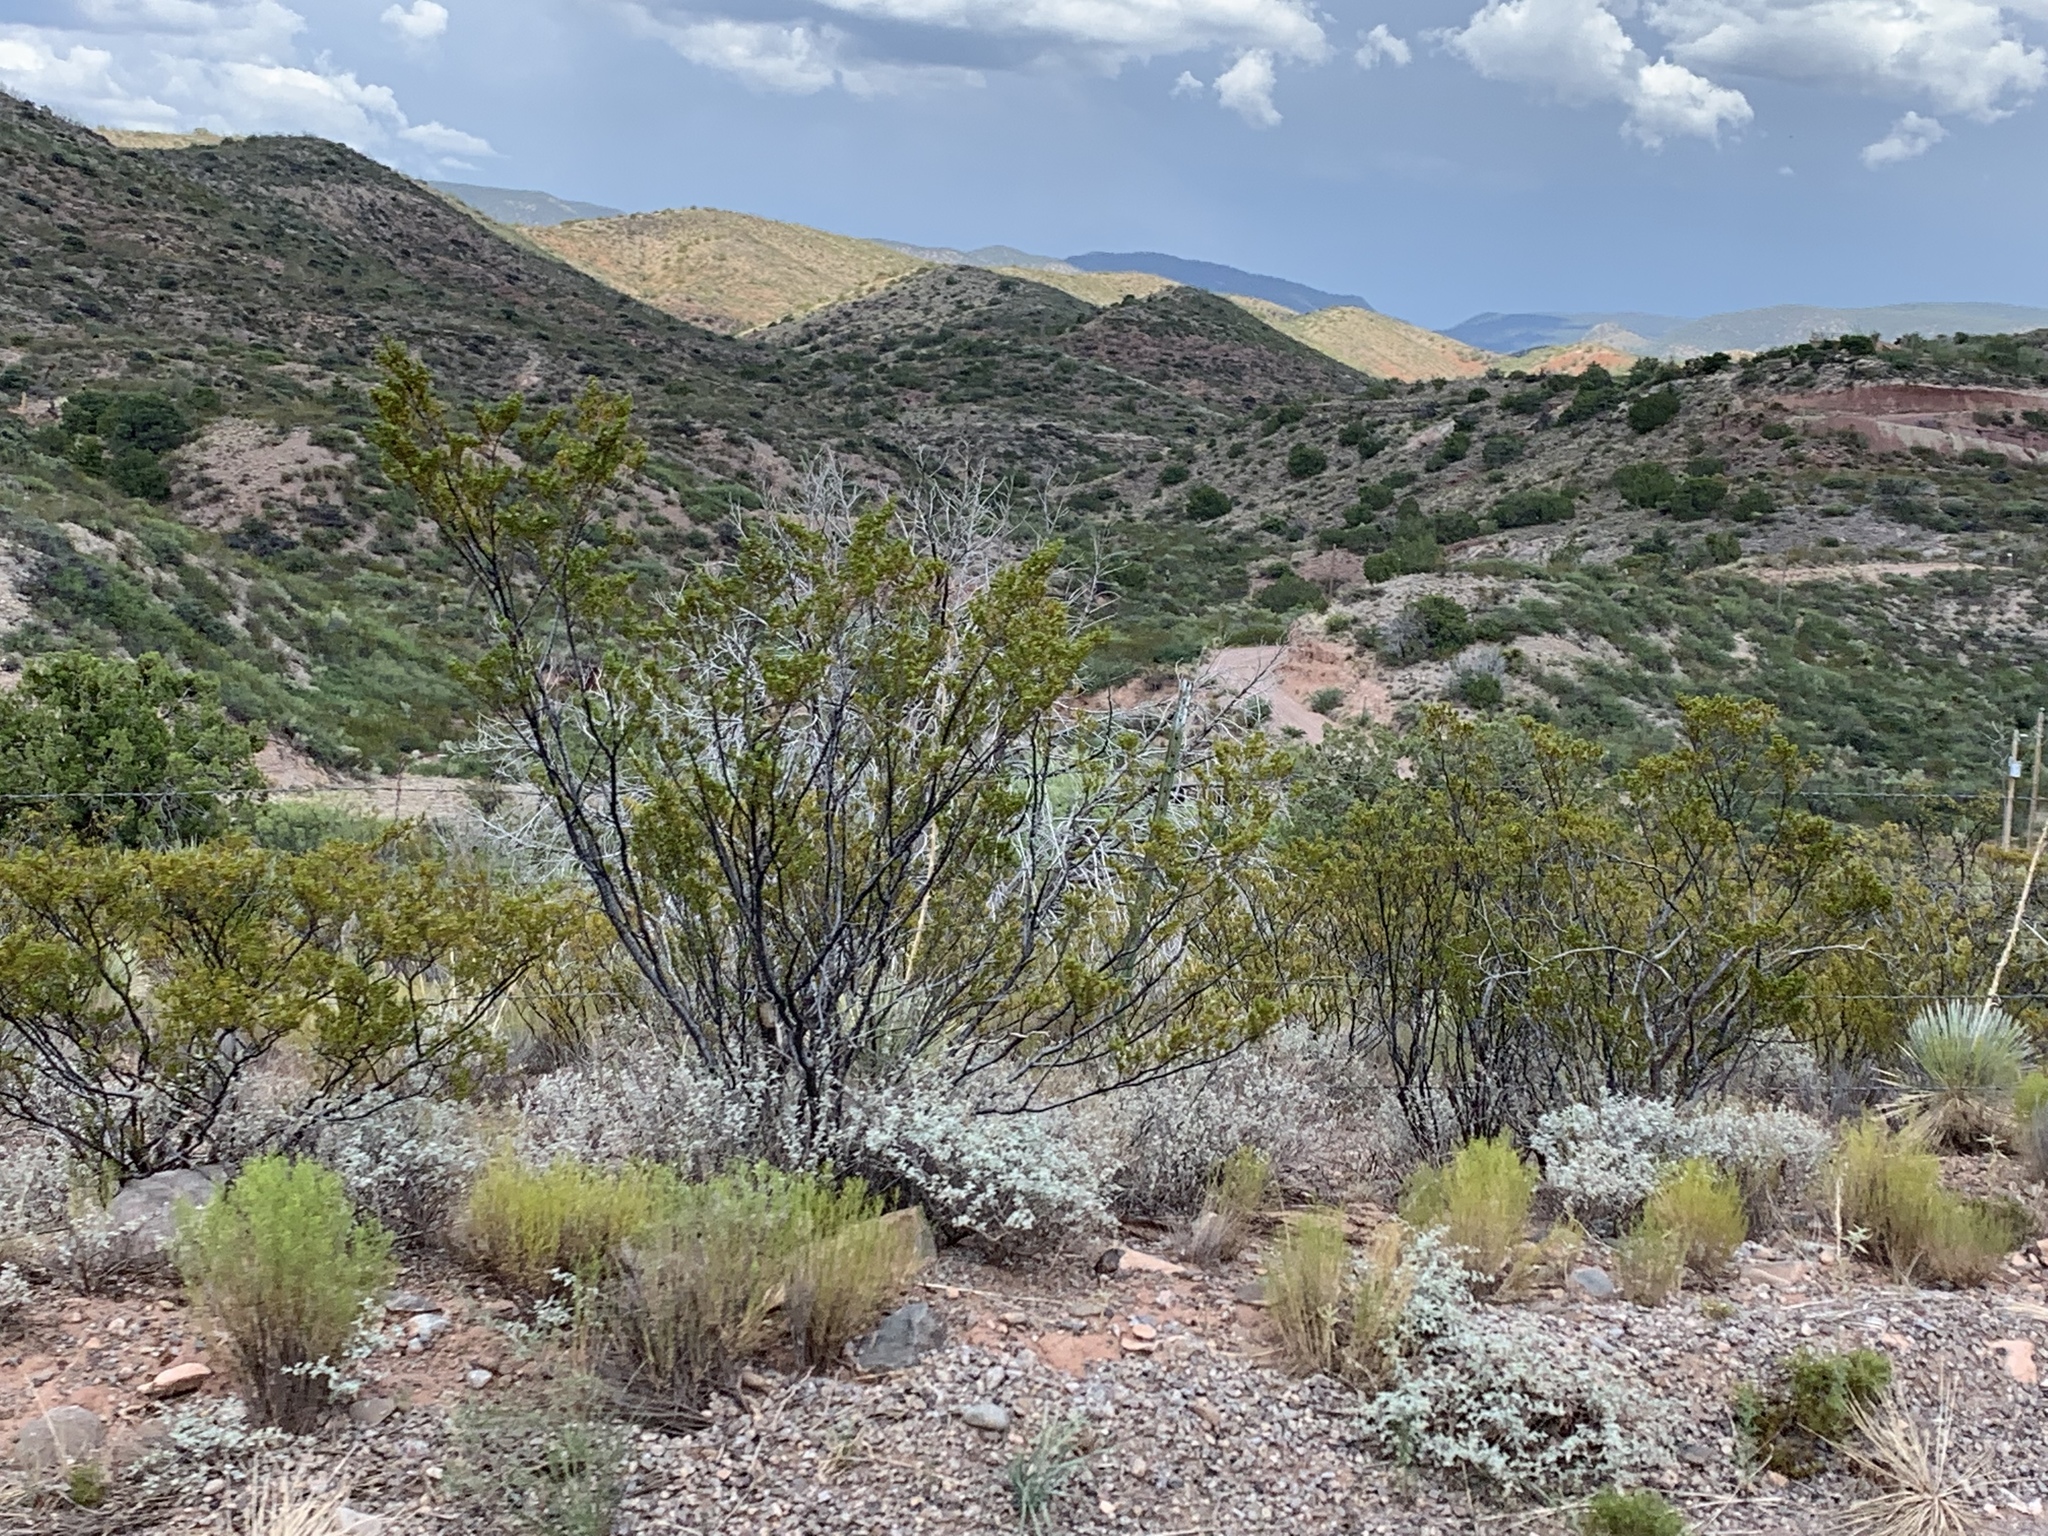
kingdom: Plantae
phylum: Tracheophyta
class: Magnoliopsida
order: Zygophyllales
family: Zygophyllaceae
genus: Larrea
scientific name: Larrea tridentata
